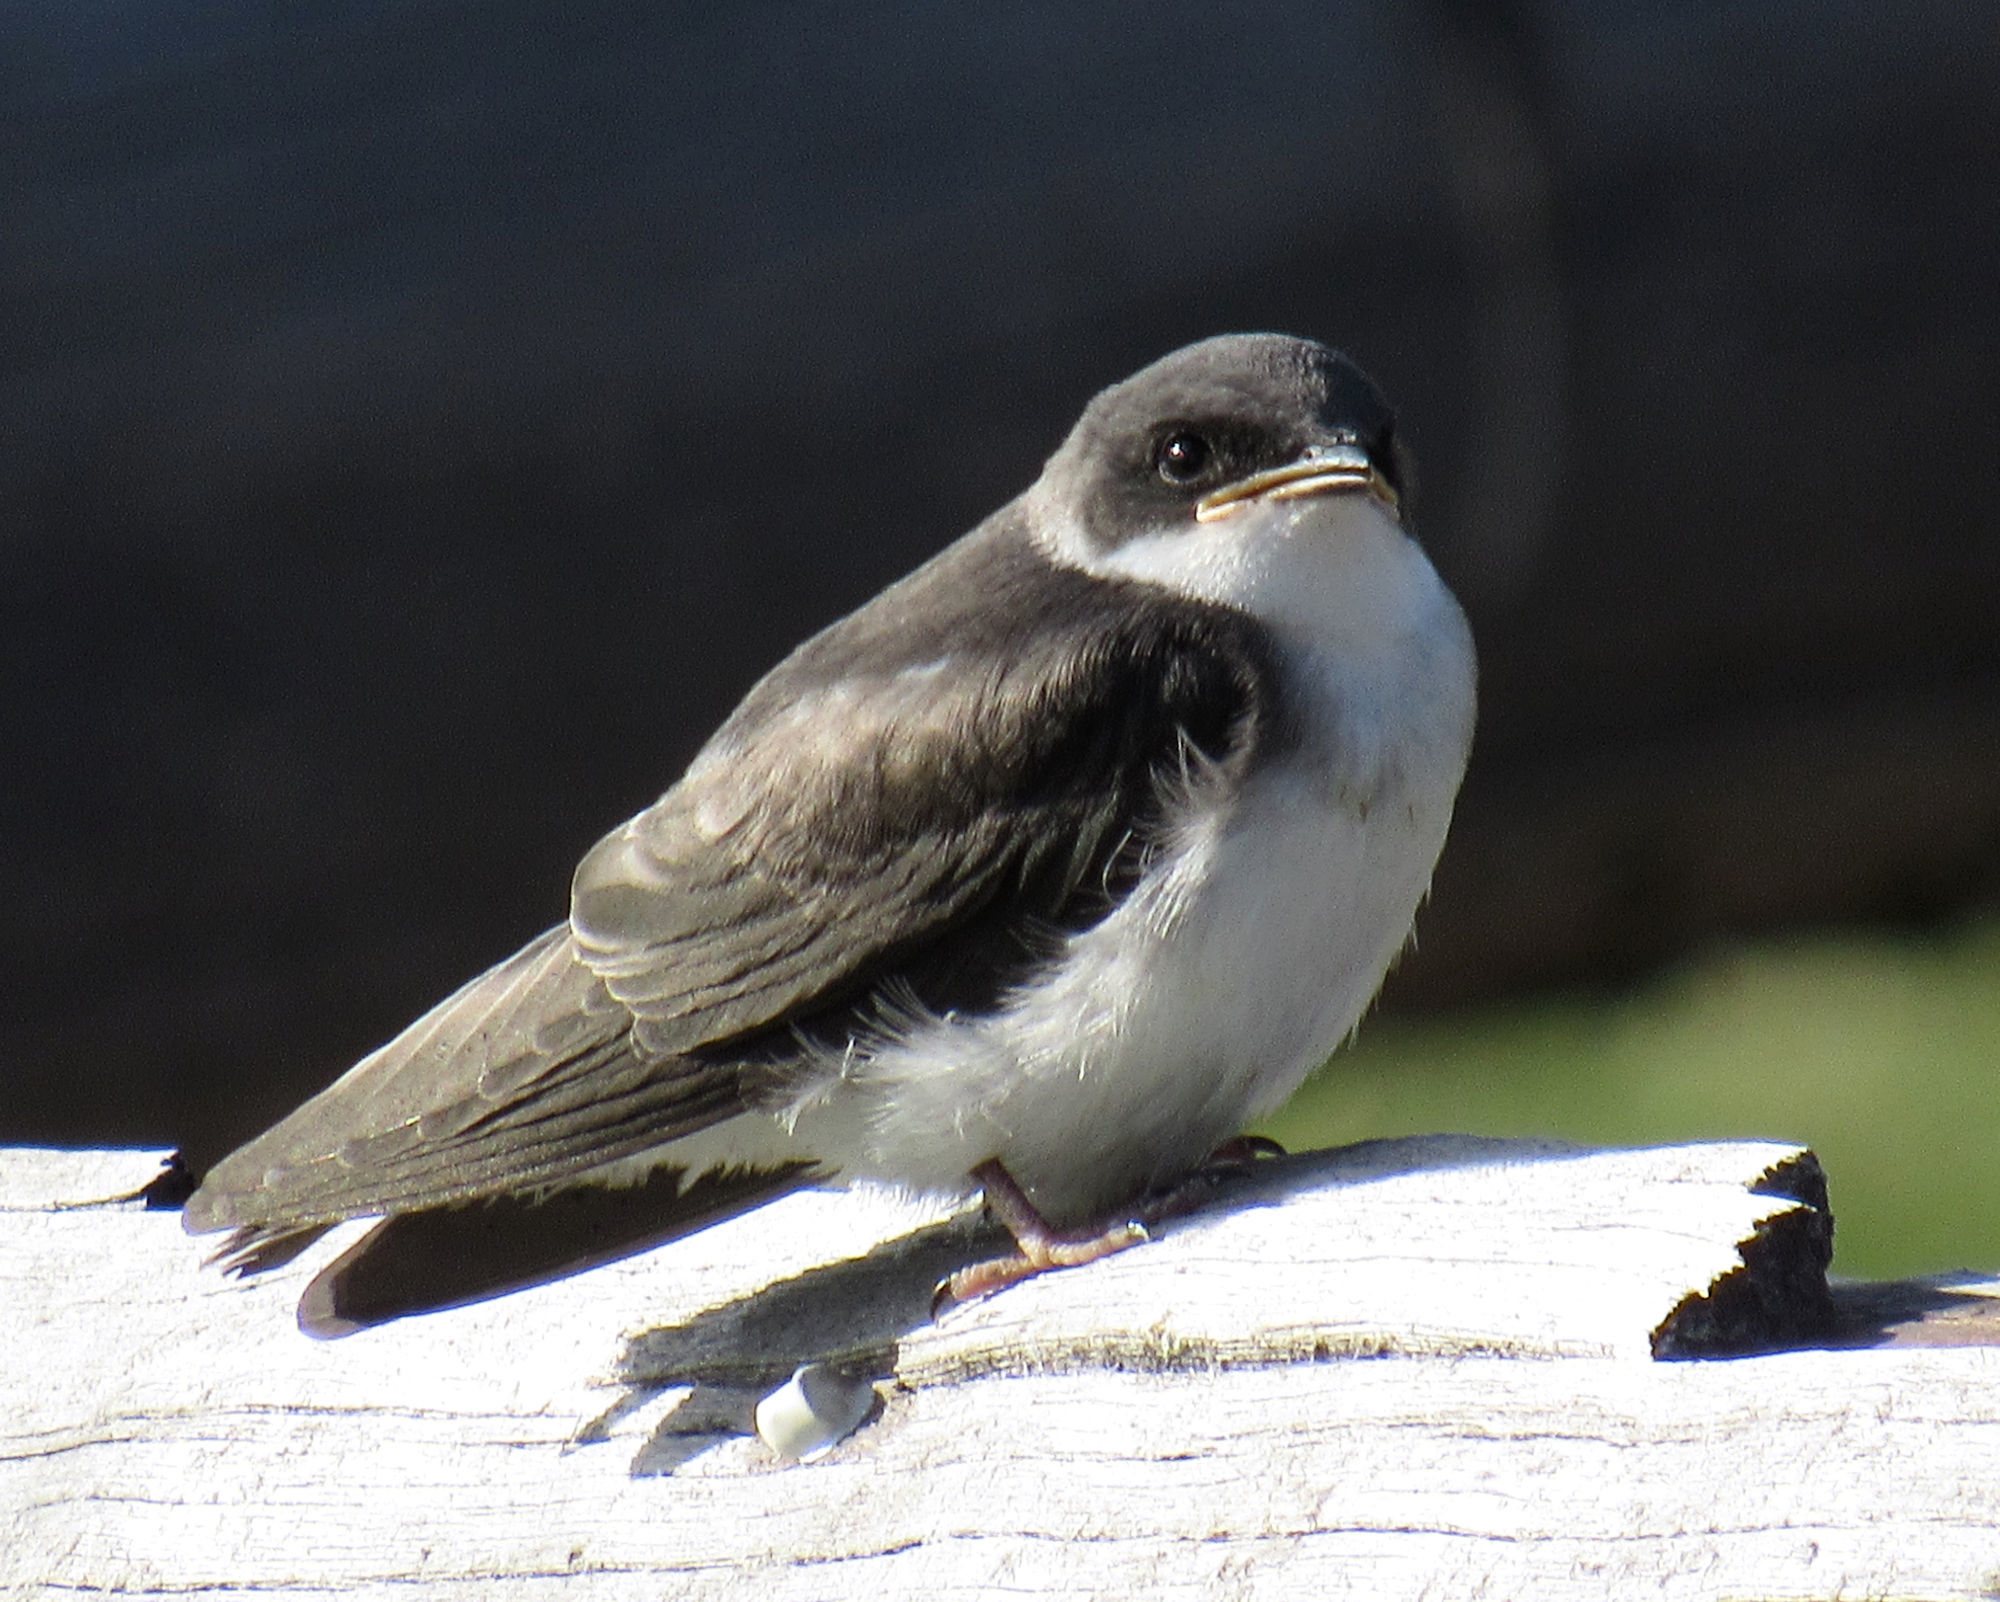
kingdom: Animalia
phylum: Chordata
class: Aves
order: Passeriformes
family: Hirundinidae
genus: Tachycineta
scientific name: Tachycineta bicolor
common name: Tree swallow
